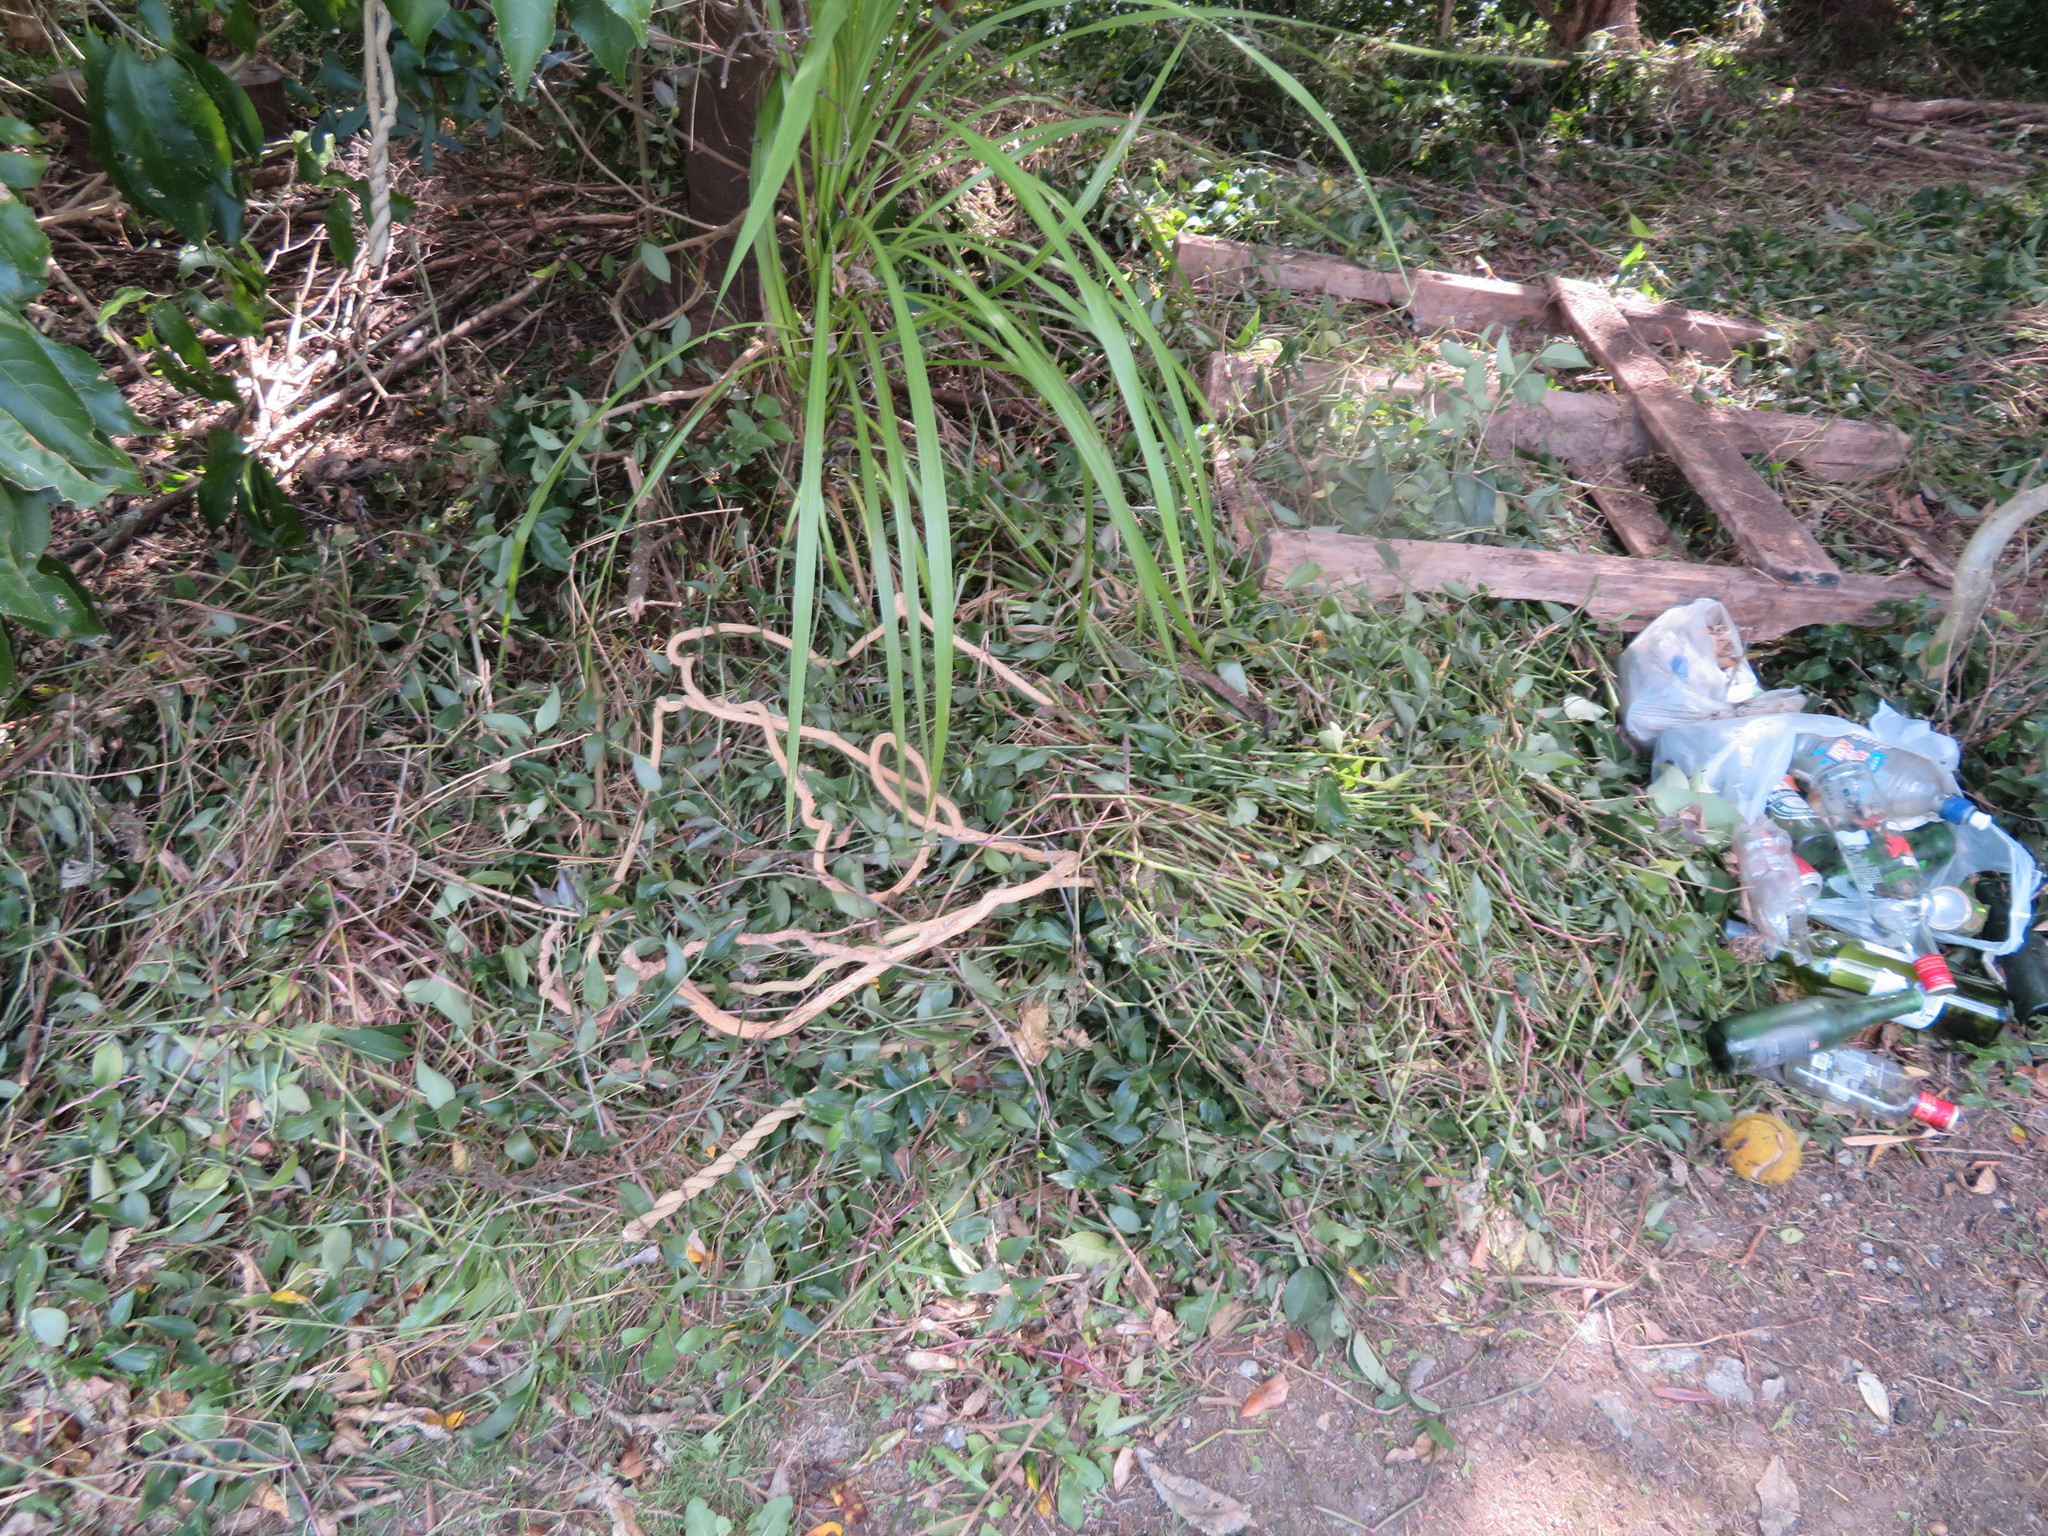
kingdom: Plantae
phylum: Tracheophyta
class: Liliopsida
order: Asparagales
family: Asparagaceae
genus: Cordyline
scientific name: Cordyline australis
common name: Cabbage-palm
